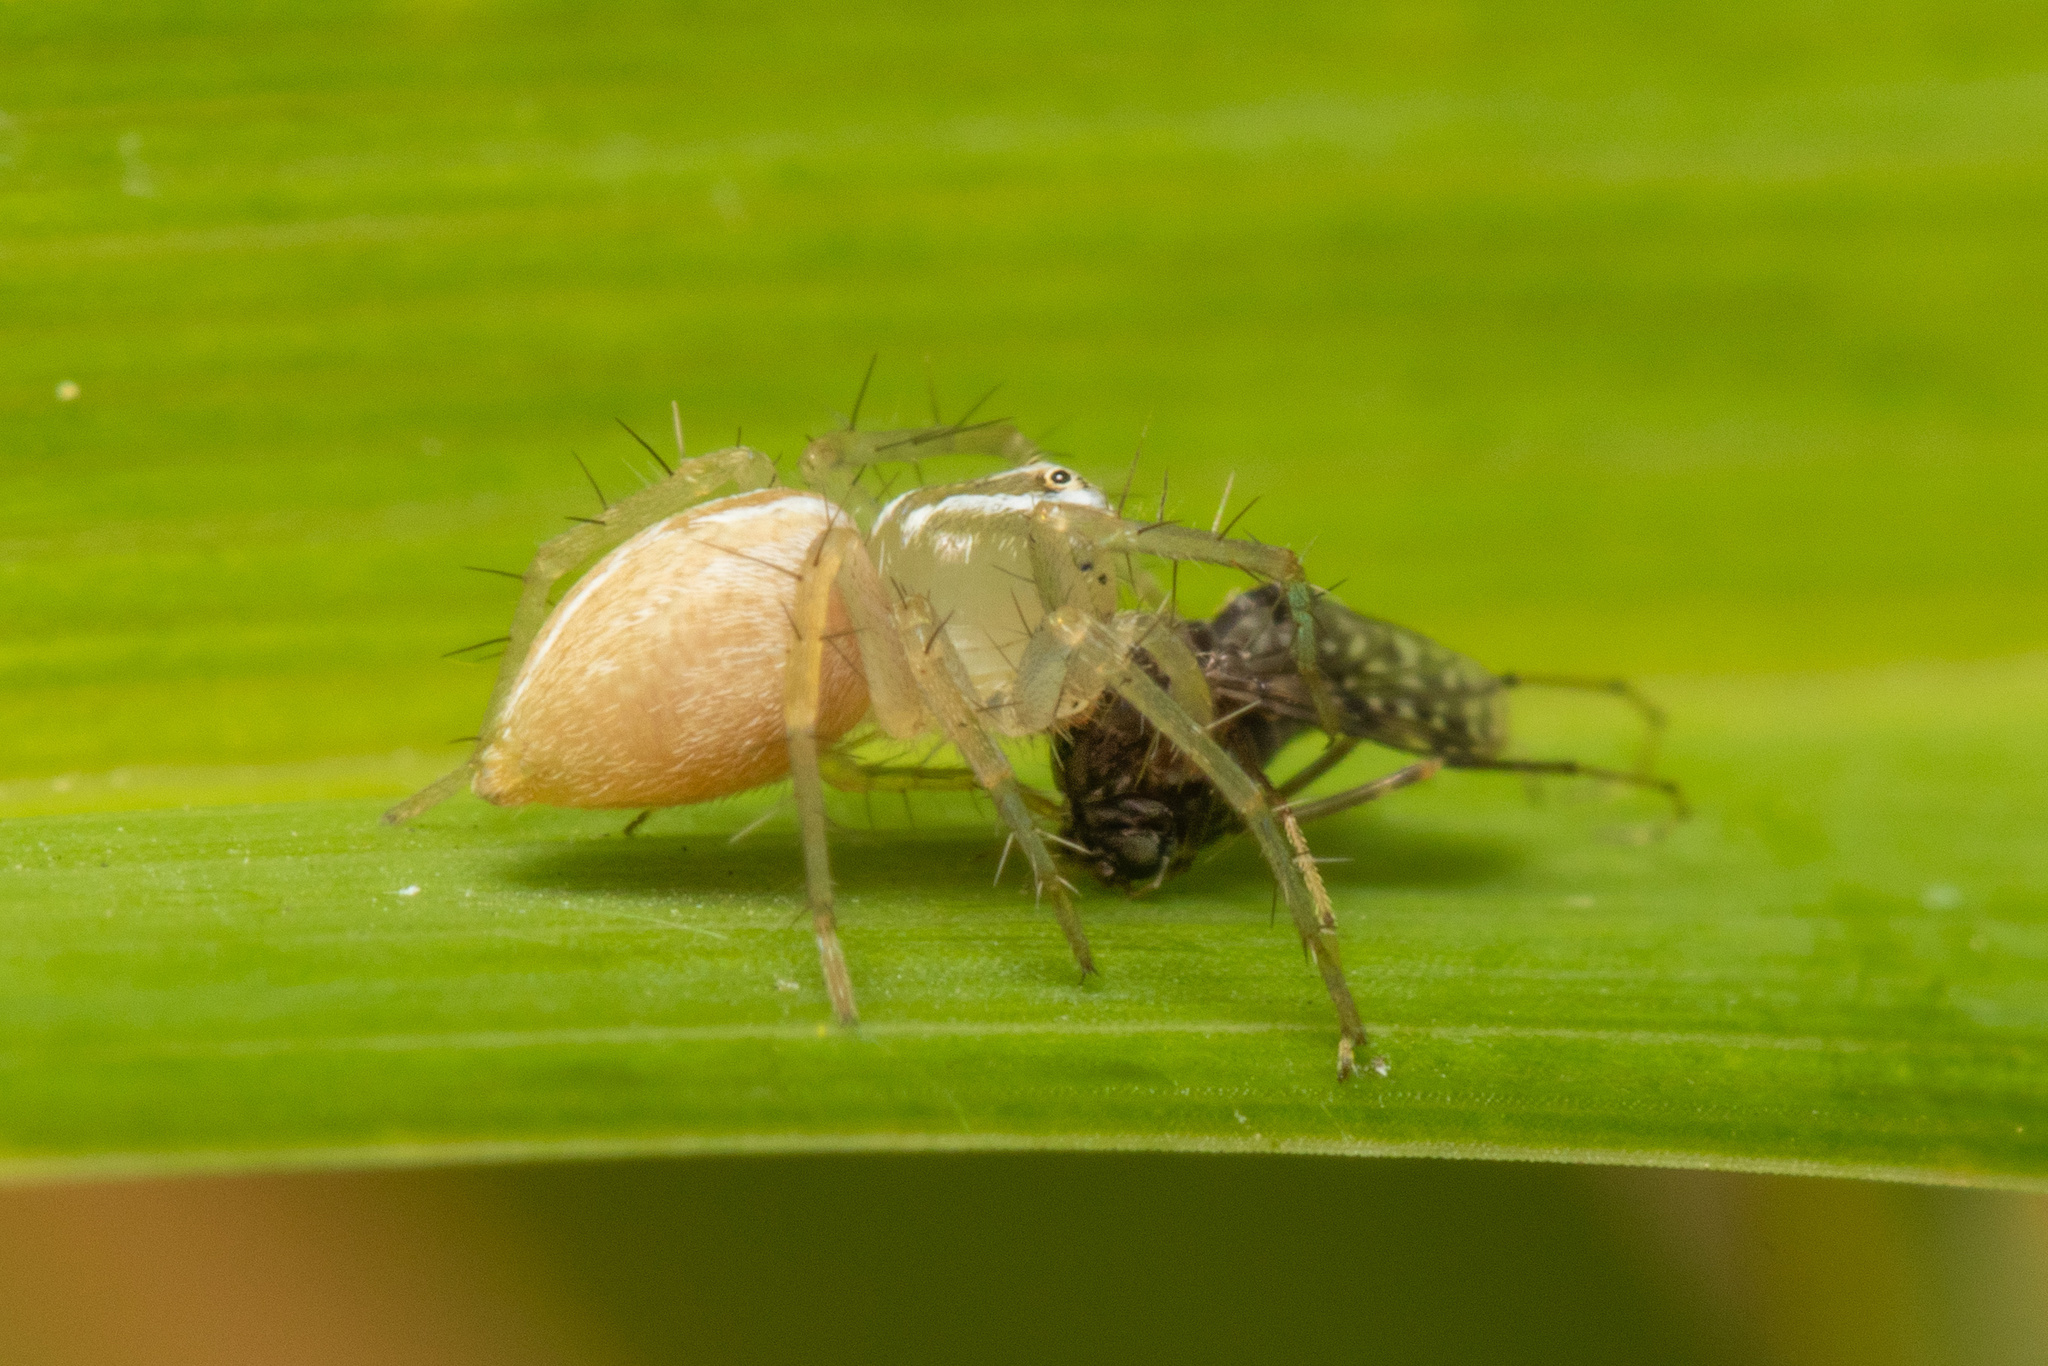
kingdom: Animalia
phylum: Arthropoda
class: Arachnida
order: Araneae
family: Oxyopidae
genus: Oxyopes
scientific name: Oxyopes salticus
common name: Lynx spiders
